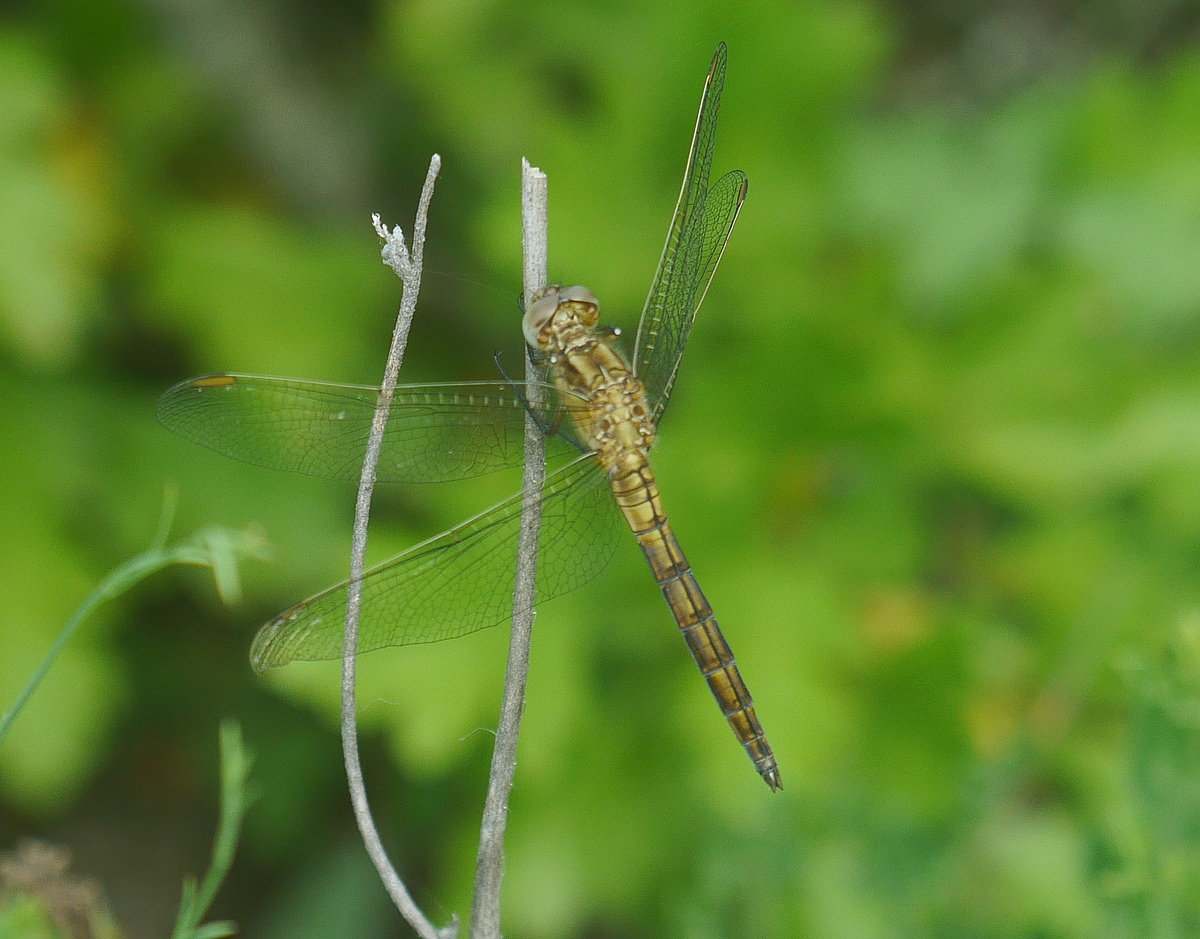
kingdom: Animalia
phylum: Arthropoda
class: Insecta
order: Odonata
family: Libellulidae
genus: Orthetrum
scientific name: Orthetrum coerulescens
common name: Keeled skimmer
